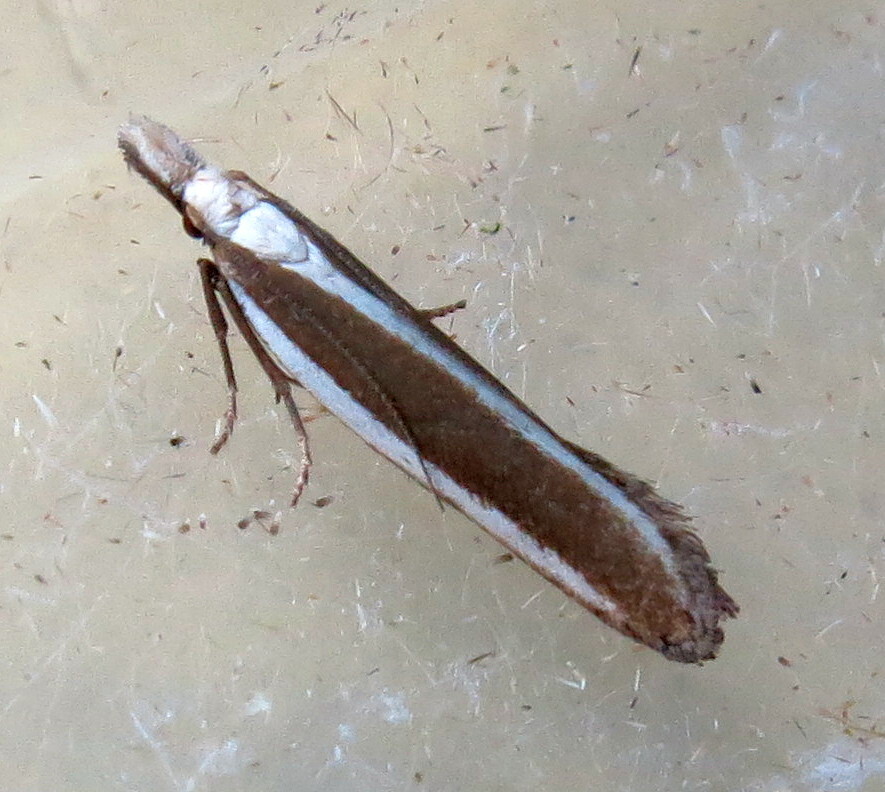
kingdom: Animalia
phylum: Arthropoda
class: Insecta
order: Lepidoptera
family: Gelechiidae
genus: Dichomeris
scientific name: Dichomeris marginella
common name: Juniper webworm
